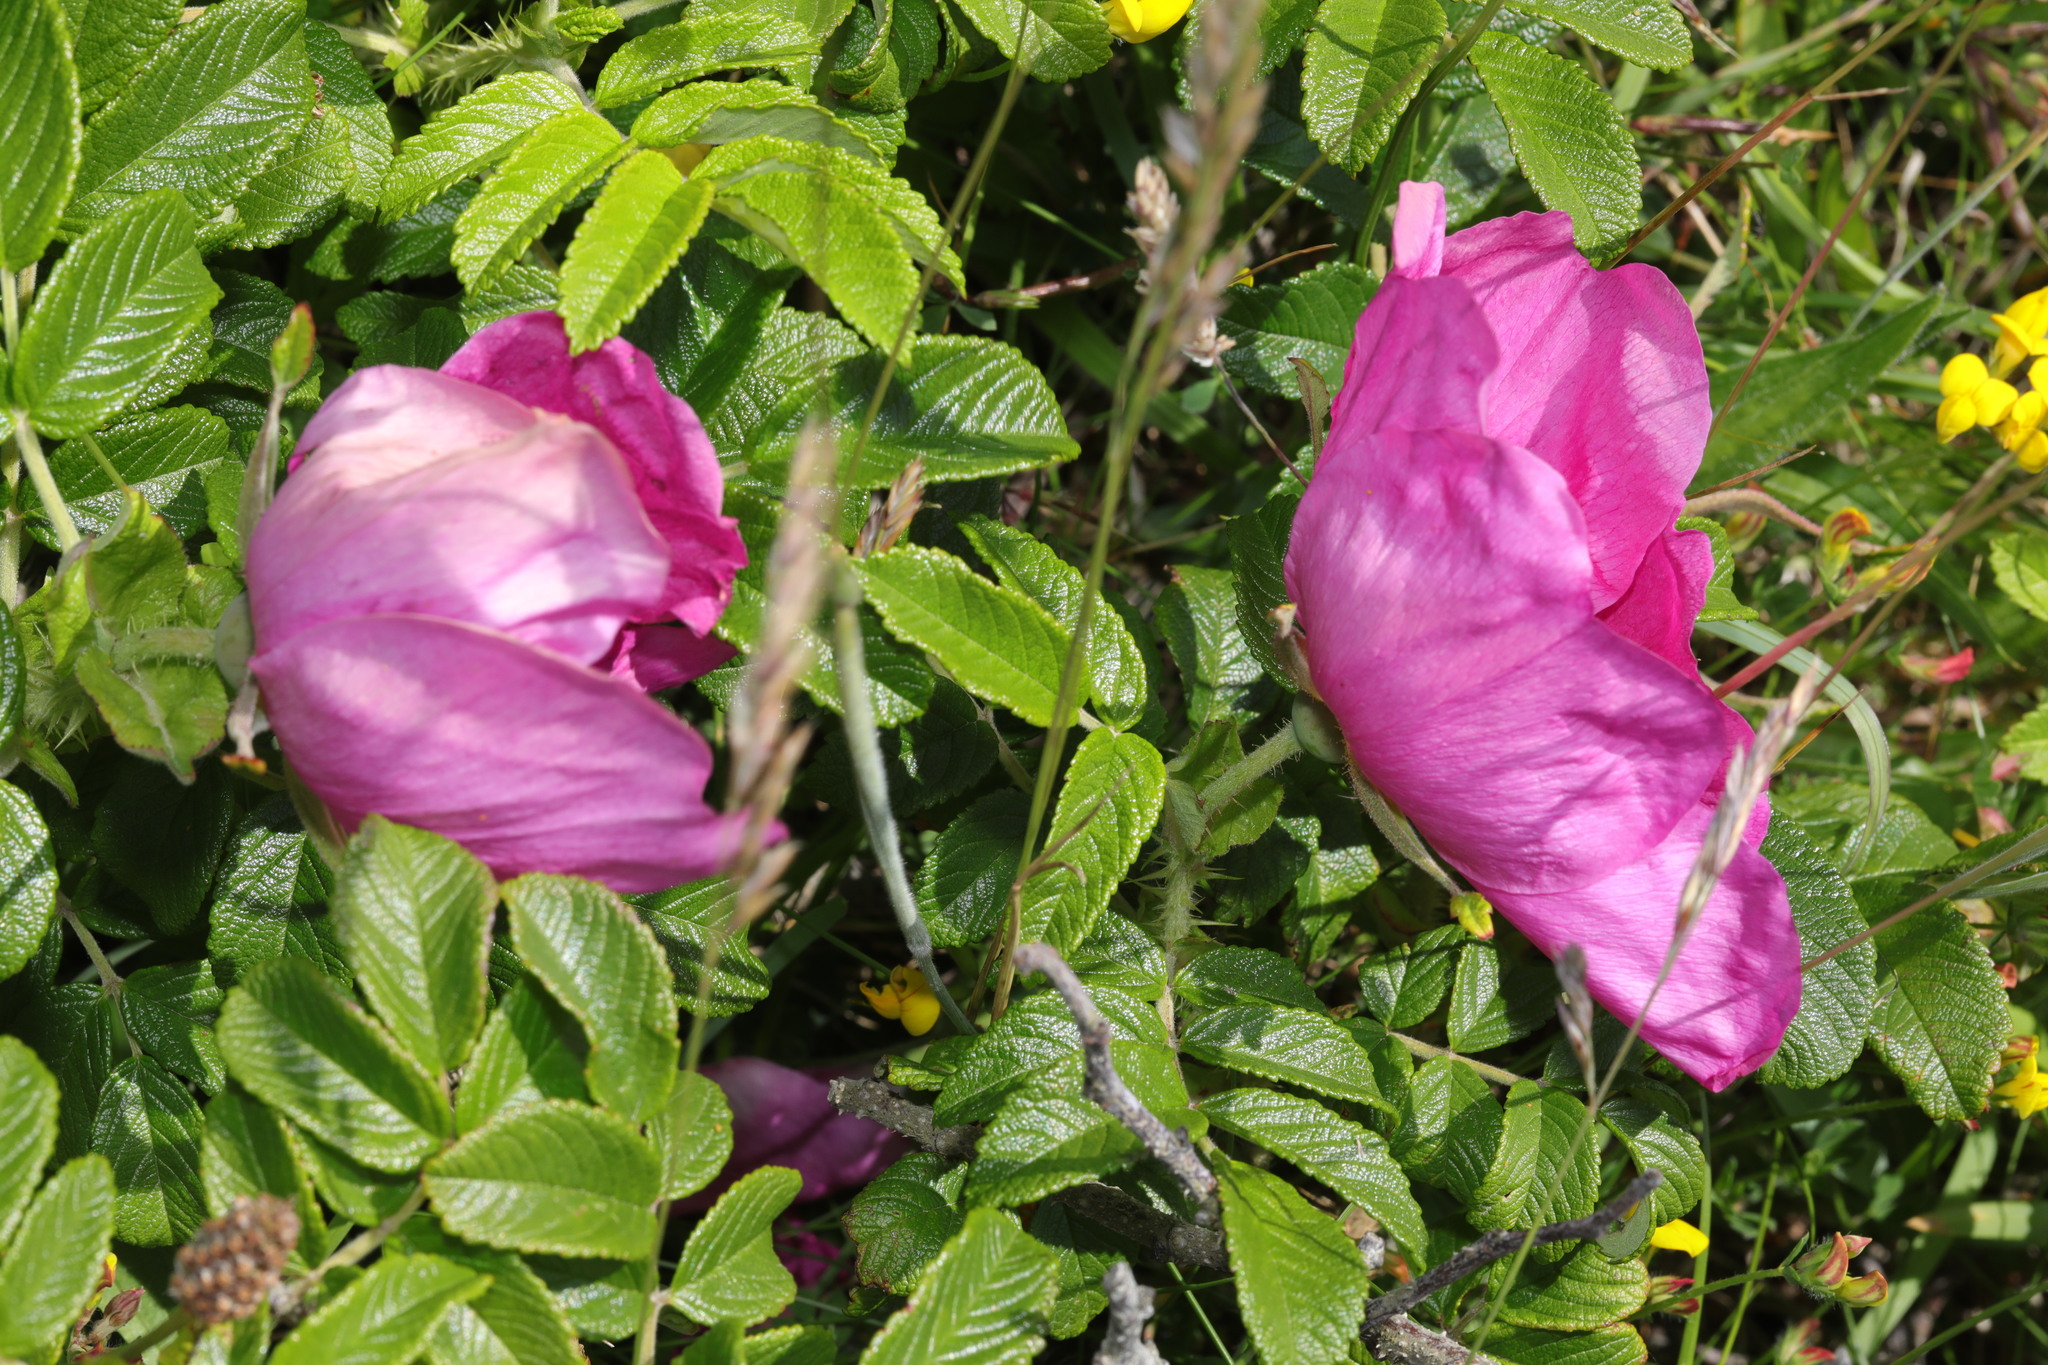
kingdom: Plantae
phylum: Tracheophyta
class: Magnoliopsida
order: Rosales
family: Rosaceae
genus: Rosa
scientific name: Rosa rugosa
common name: Japanese rose
